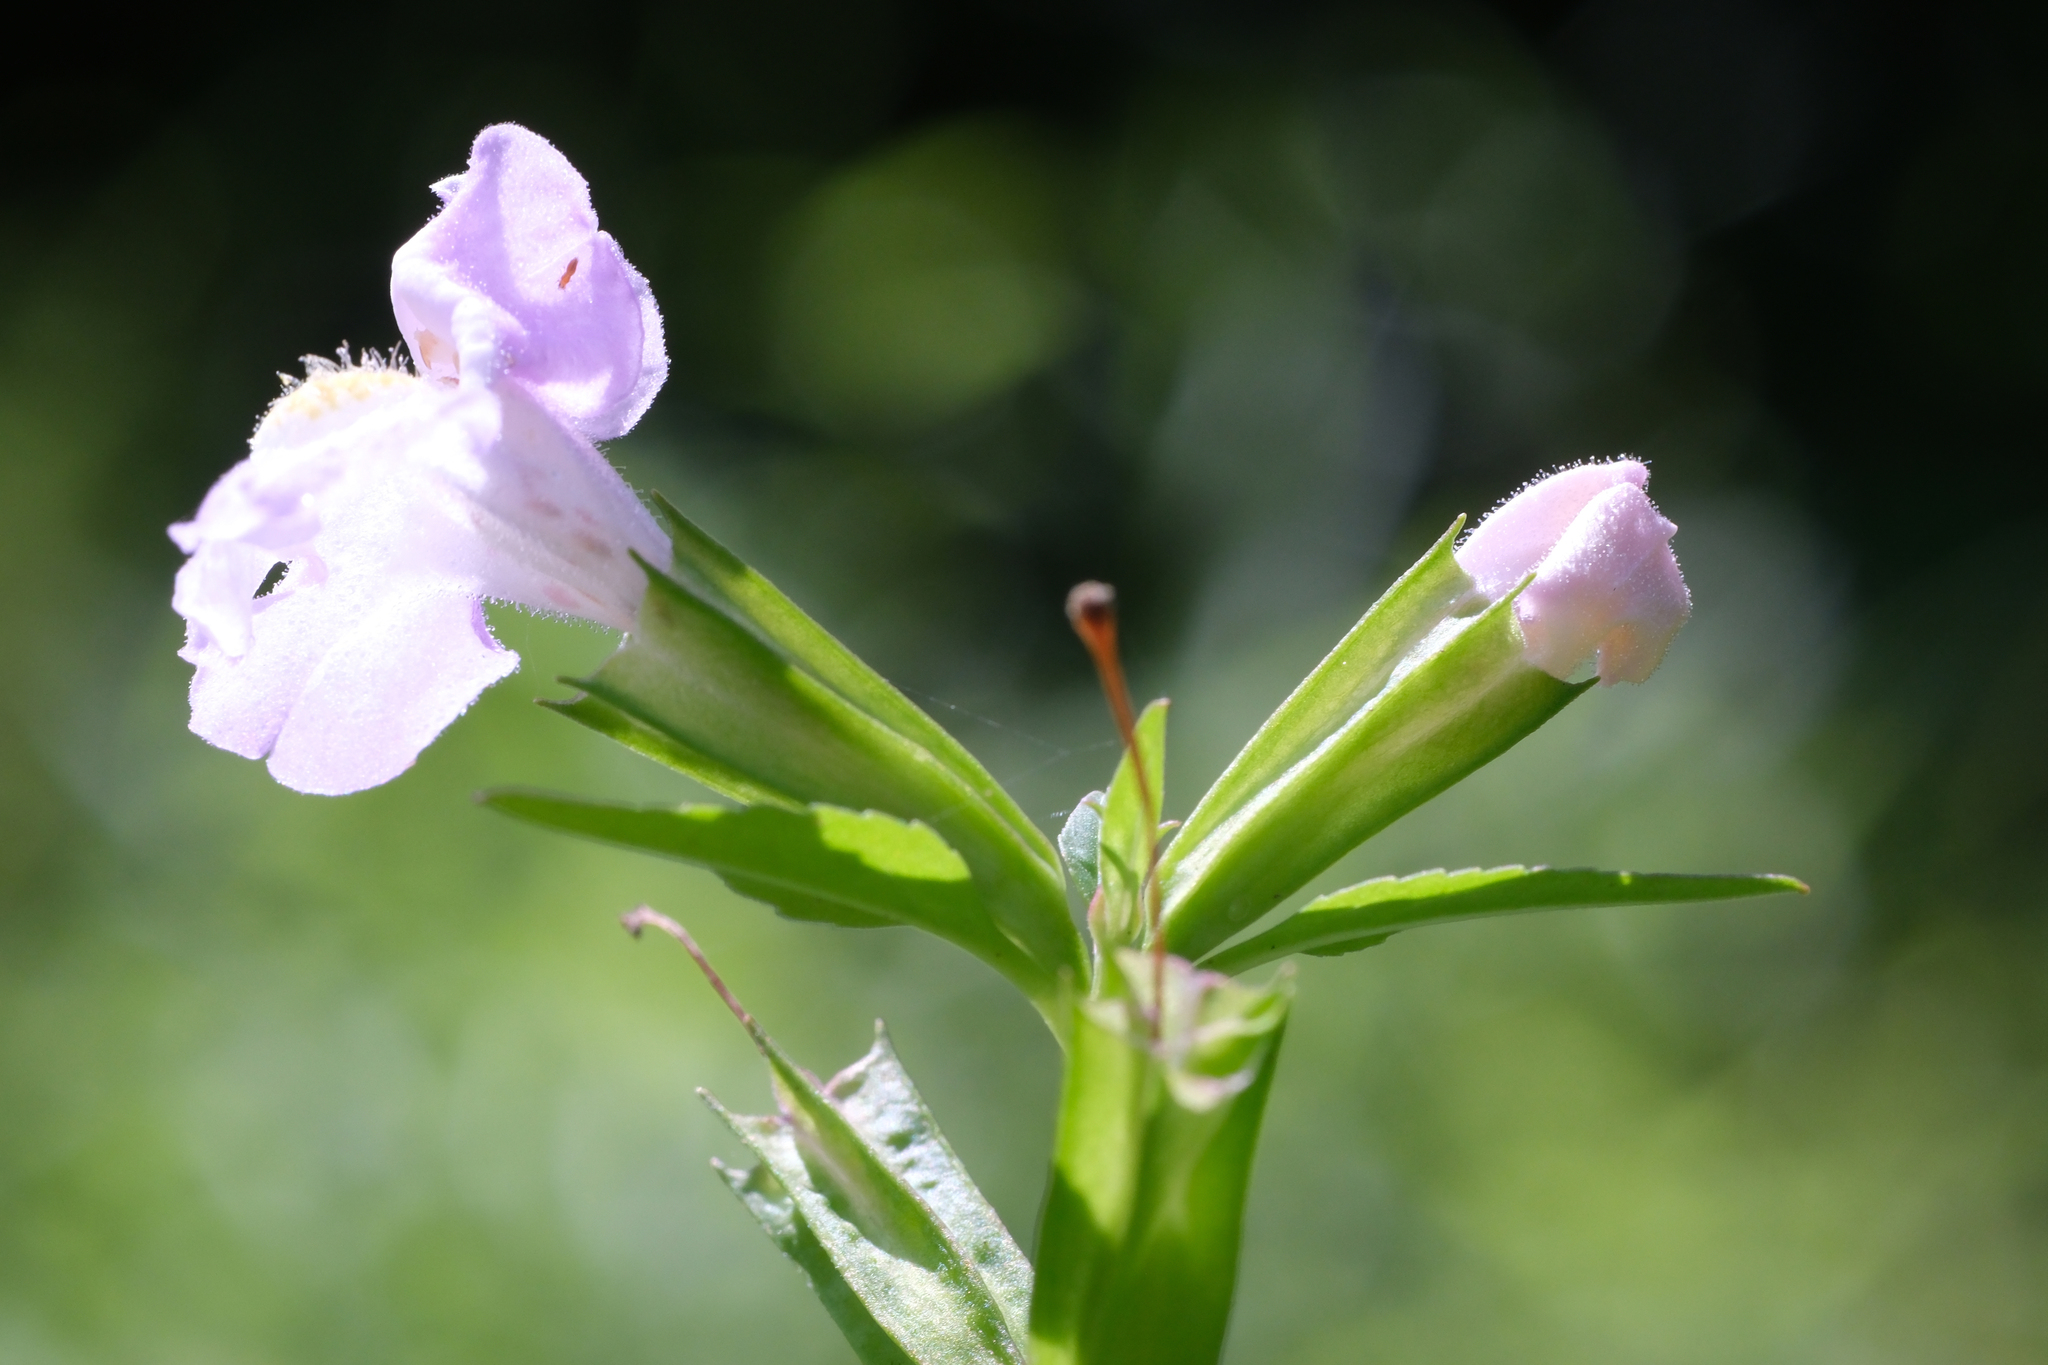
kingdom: Plantae
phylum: Tracheophyta
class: Magnoliopsida
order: Lamiales
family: Phrymaceae
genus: Mimulus
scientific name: Mimulus alatus
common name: Sharp-wing monkey-flower
